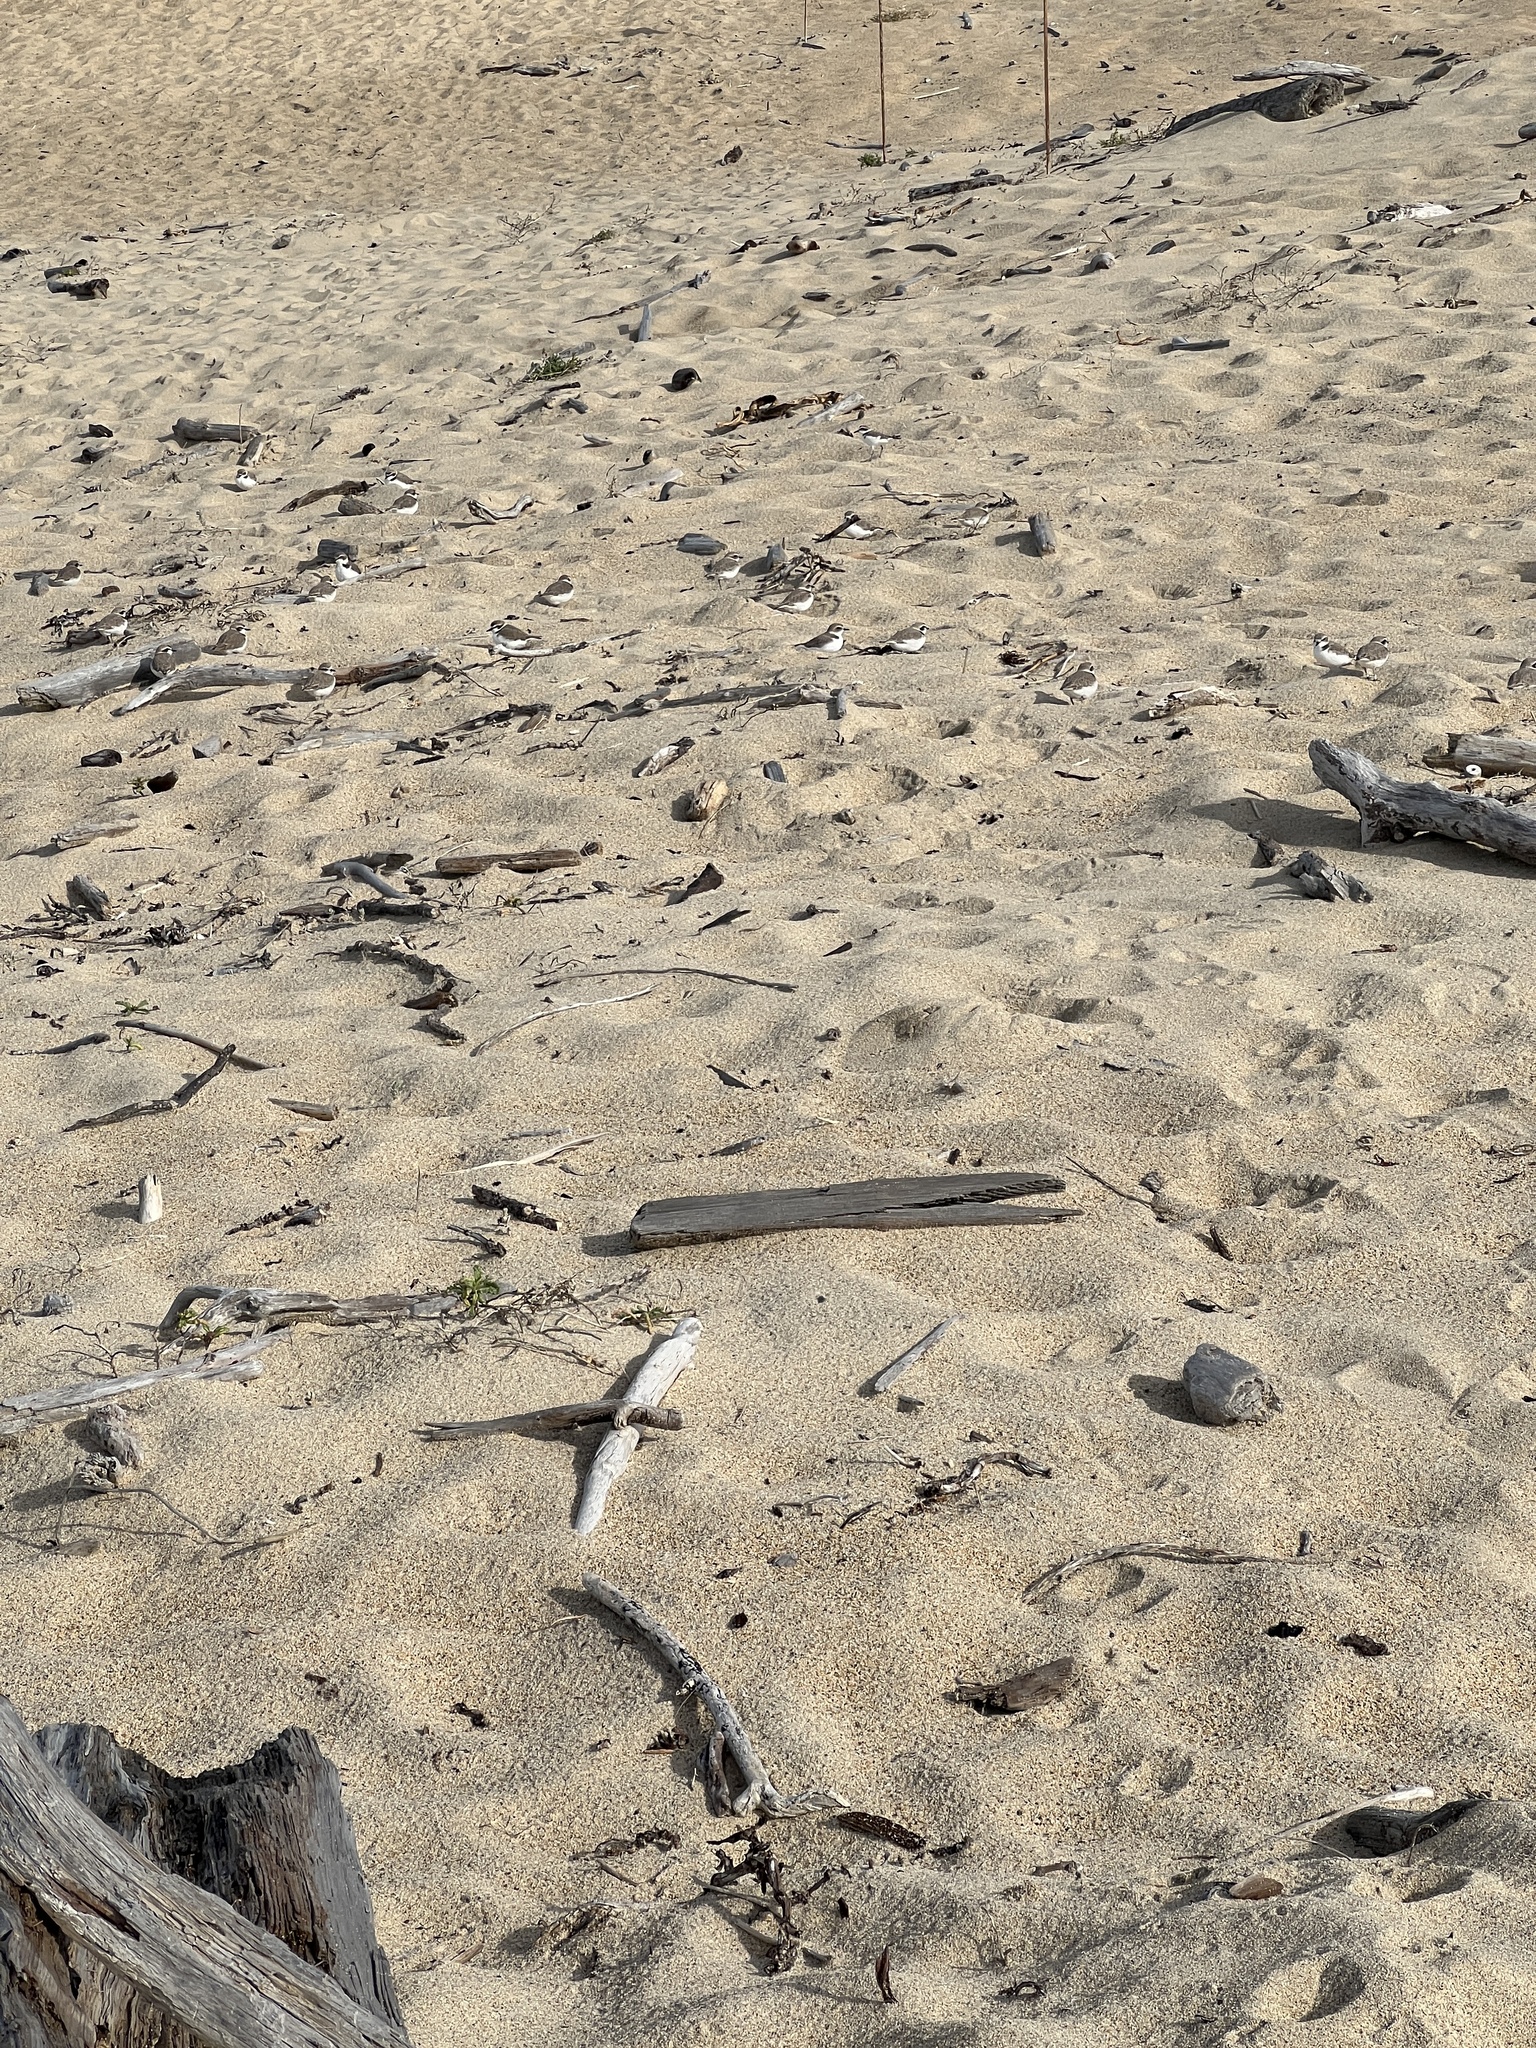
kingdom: Animalia
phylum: Chordata
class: Aves
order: Charadriiformes
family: Charadriidae
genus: Anarhynchus
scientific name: Anarhynchus
